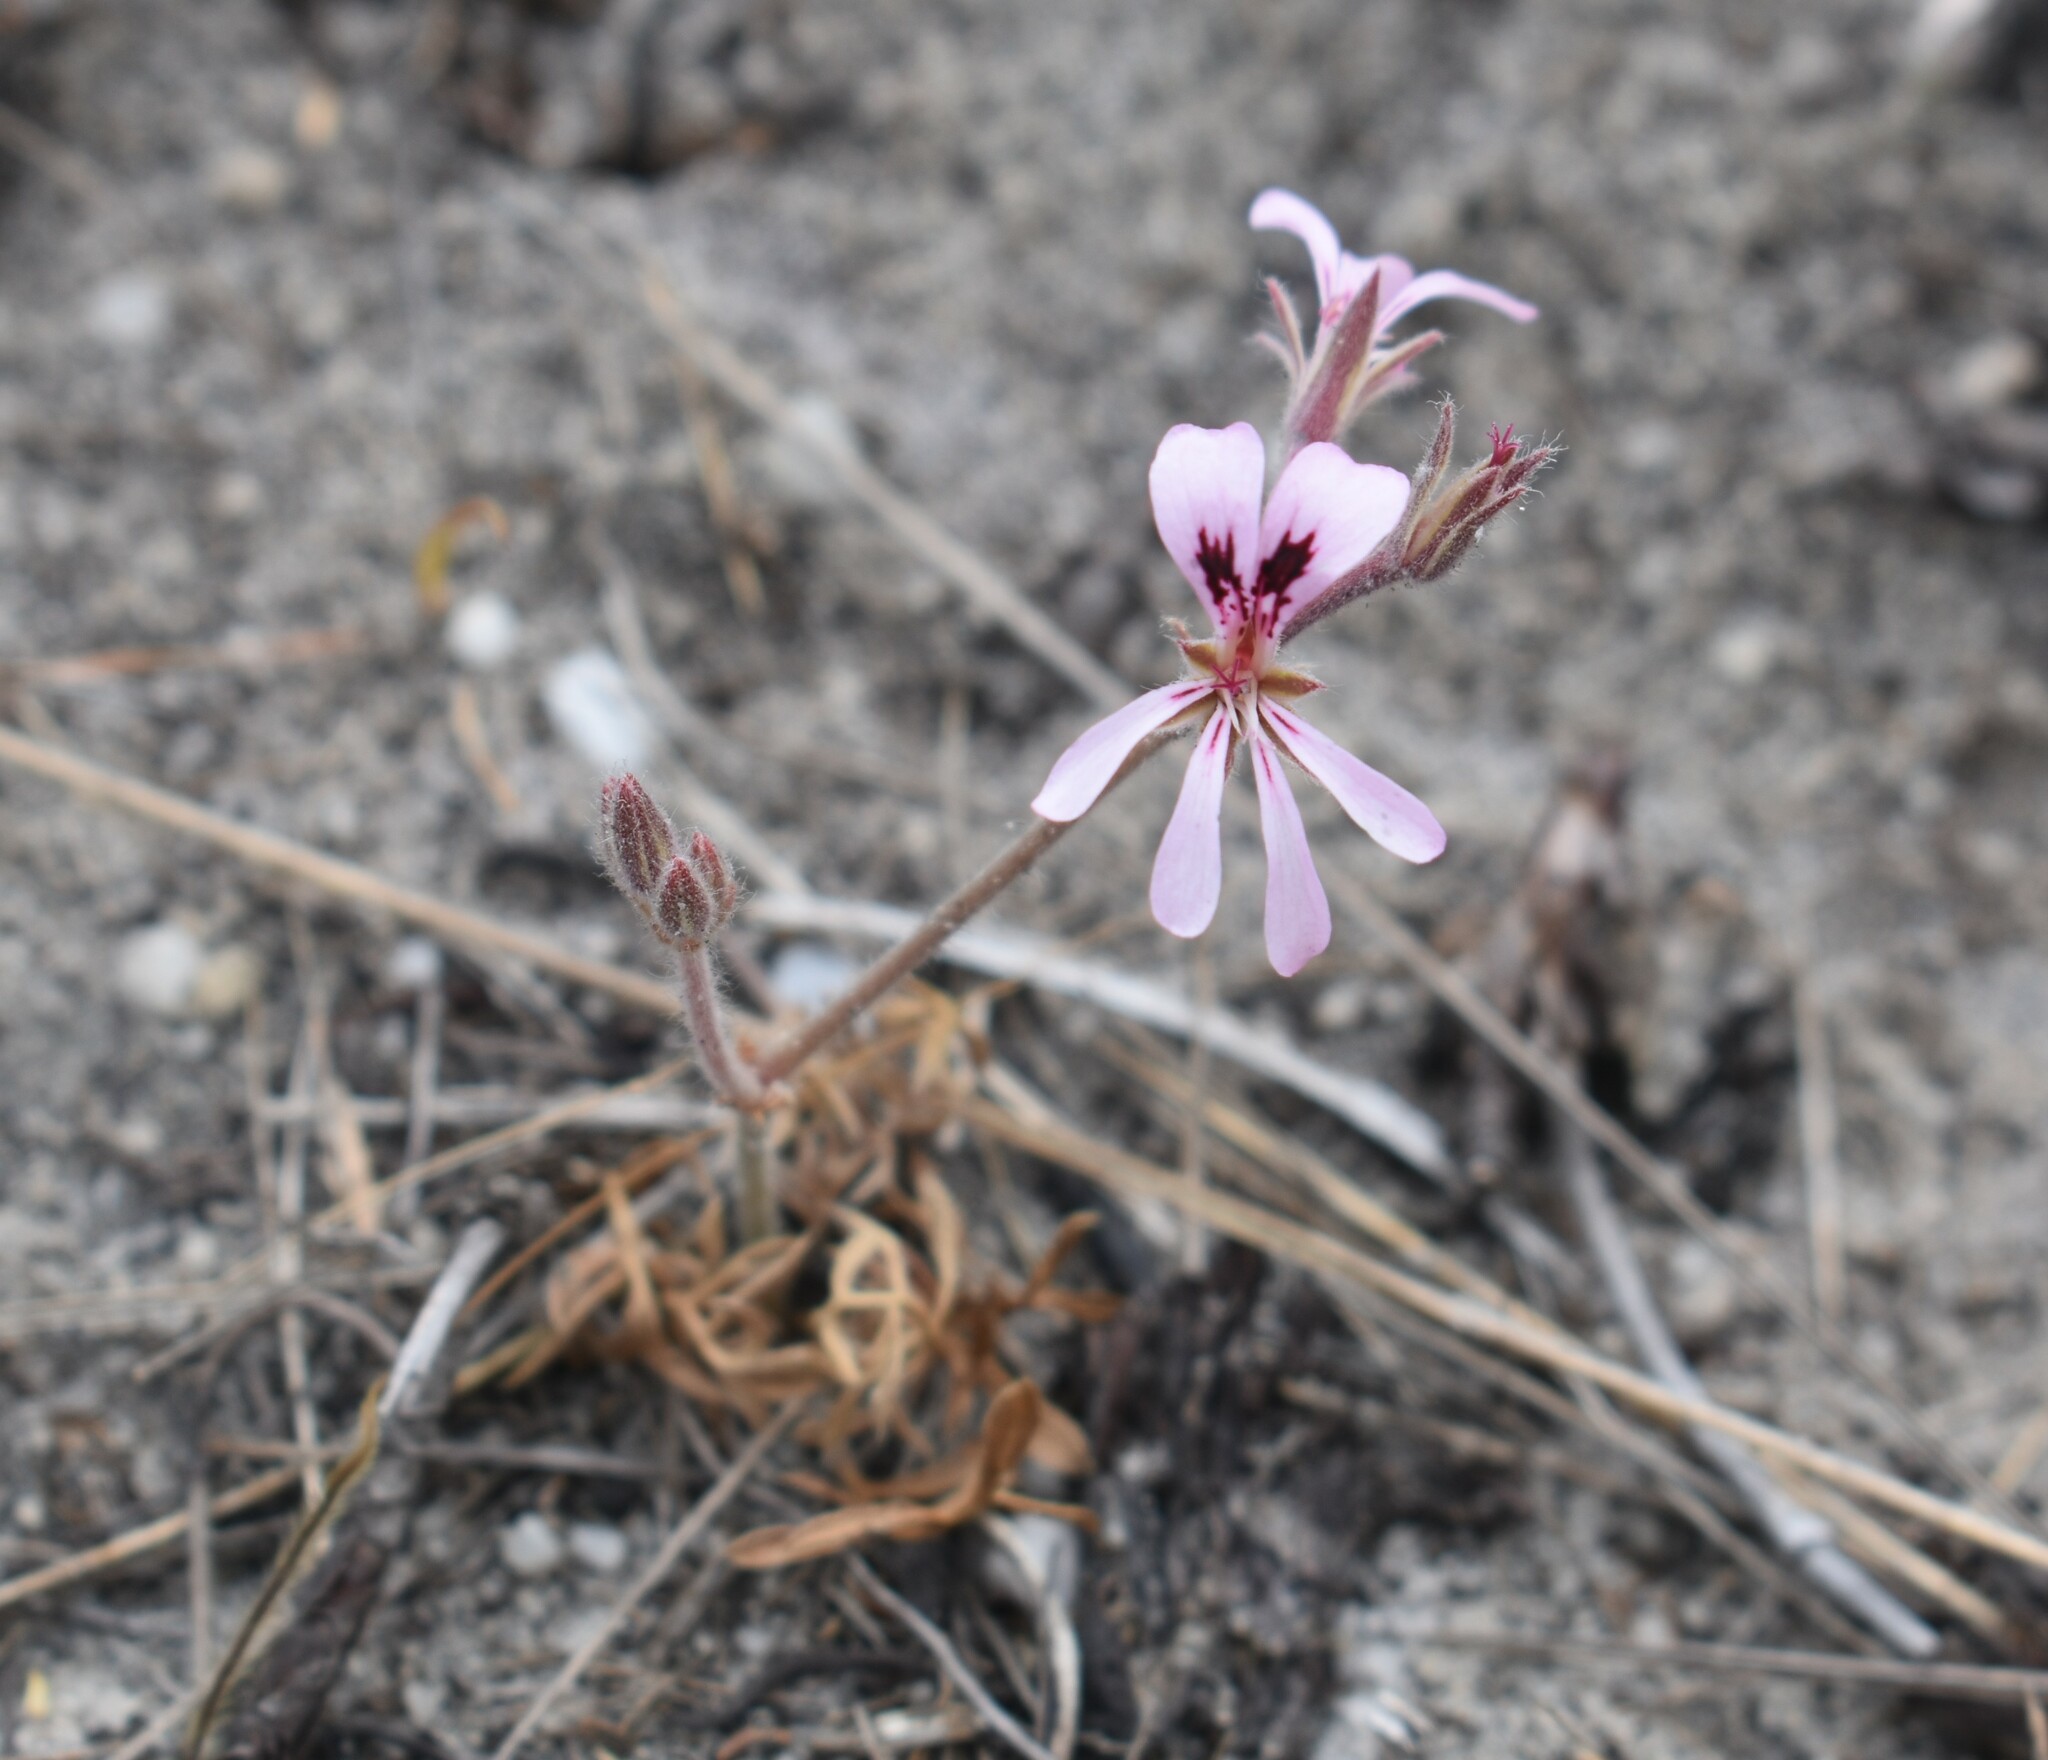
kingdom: Plantae
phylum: Tracheophyta
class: Magnoliopsida
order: Geraniales
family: Geraniaceae
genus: Pelargonium
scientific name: Pelargonium psammophilum
